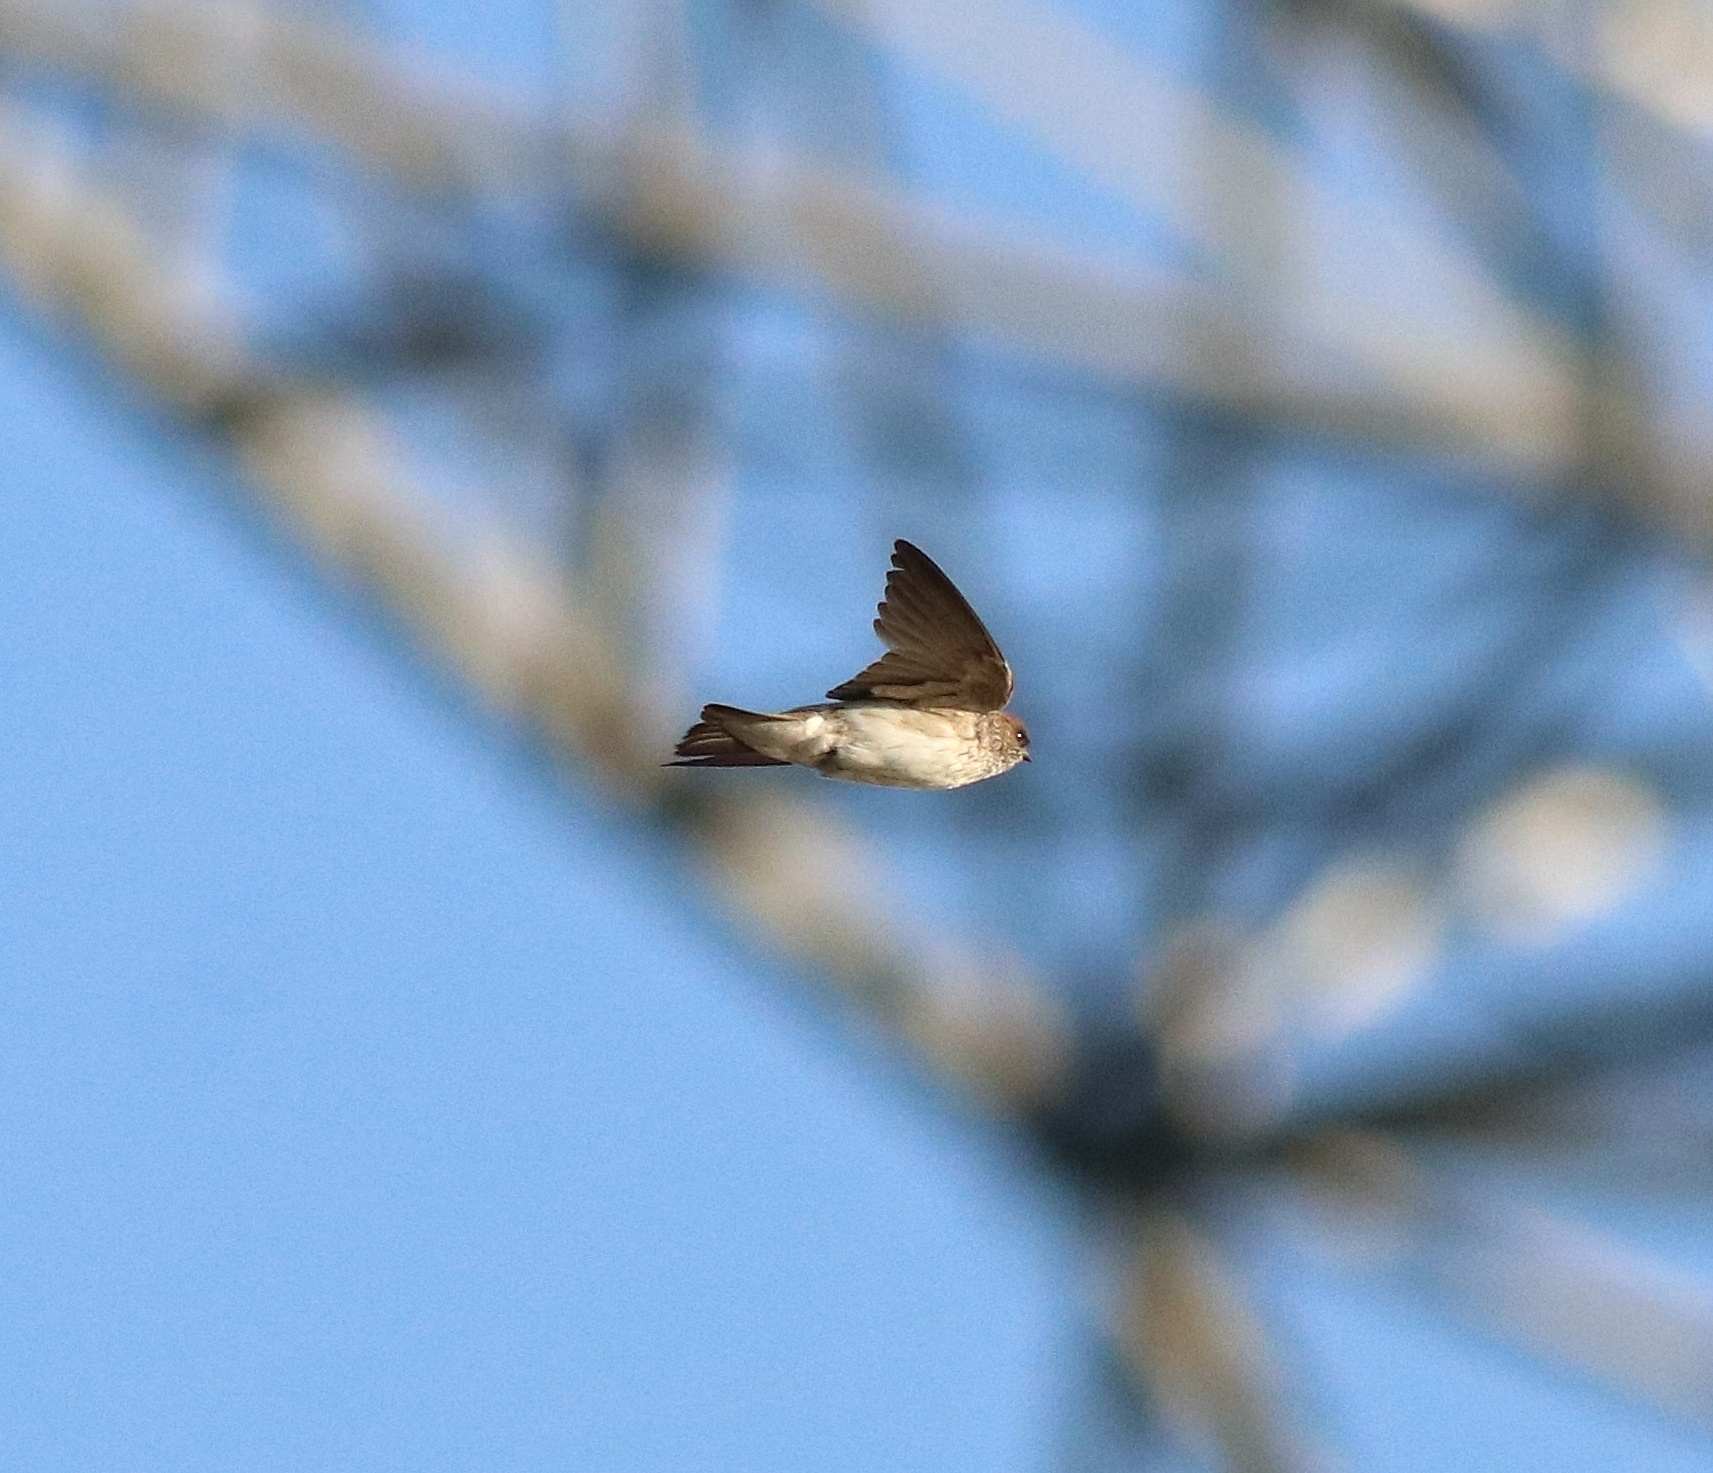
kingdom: Animalia
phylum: Chordata
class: Aves
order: Passeriformes
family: Hirundinidae
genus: Petrochelidon
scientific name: Petrochelidon fluvicola
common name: Streak-throated swallow
